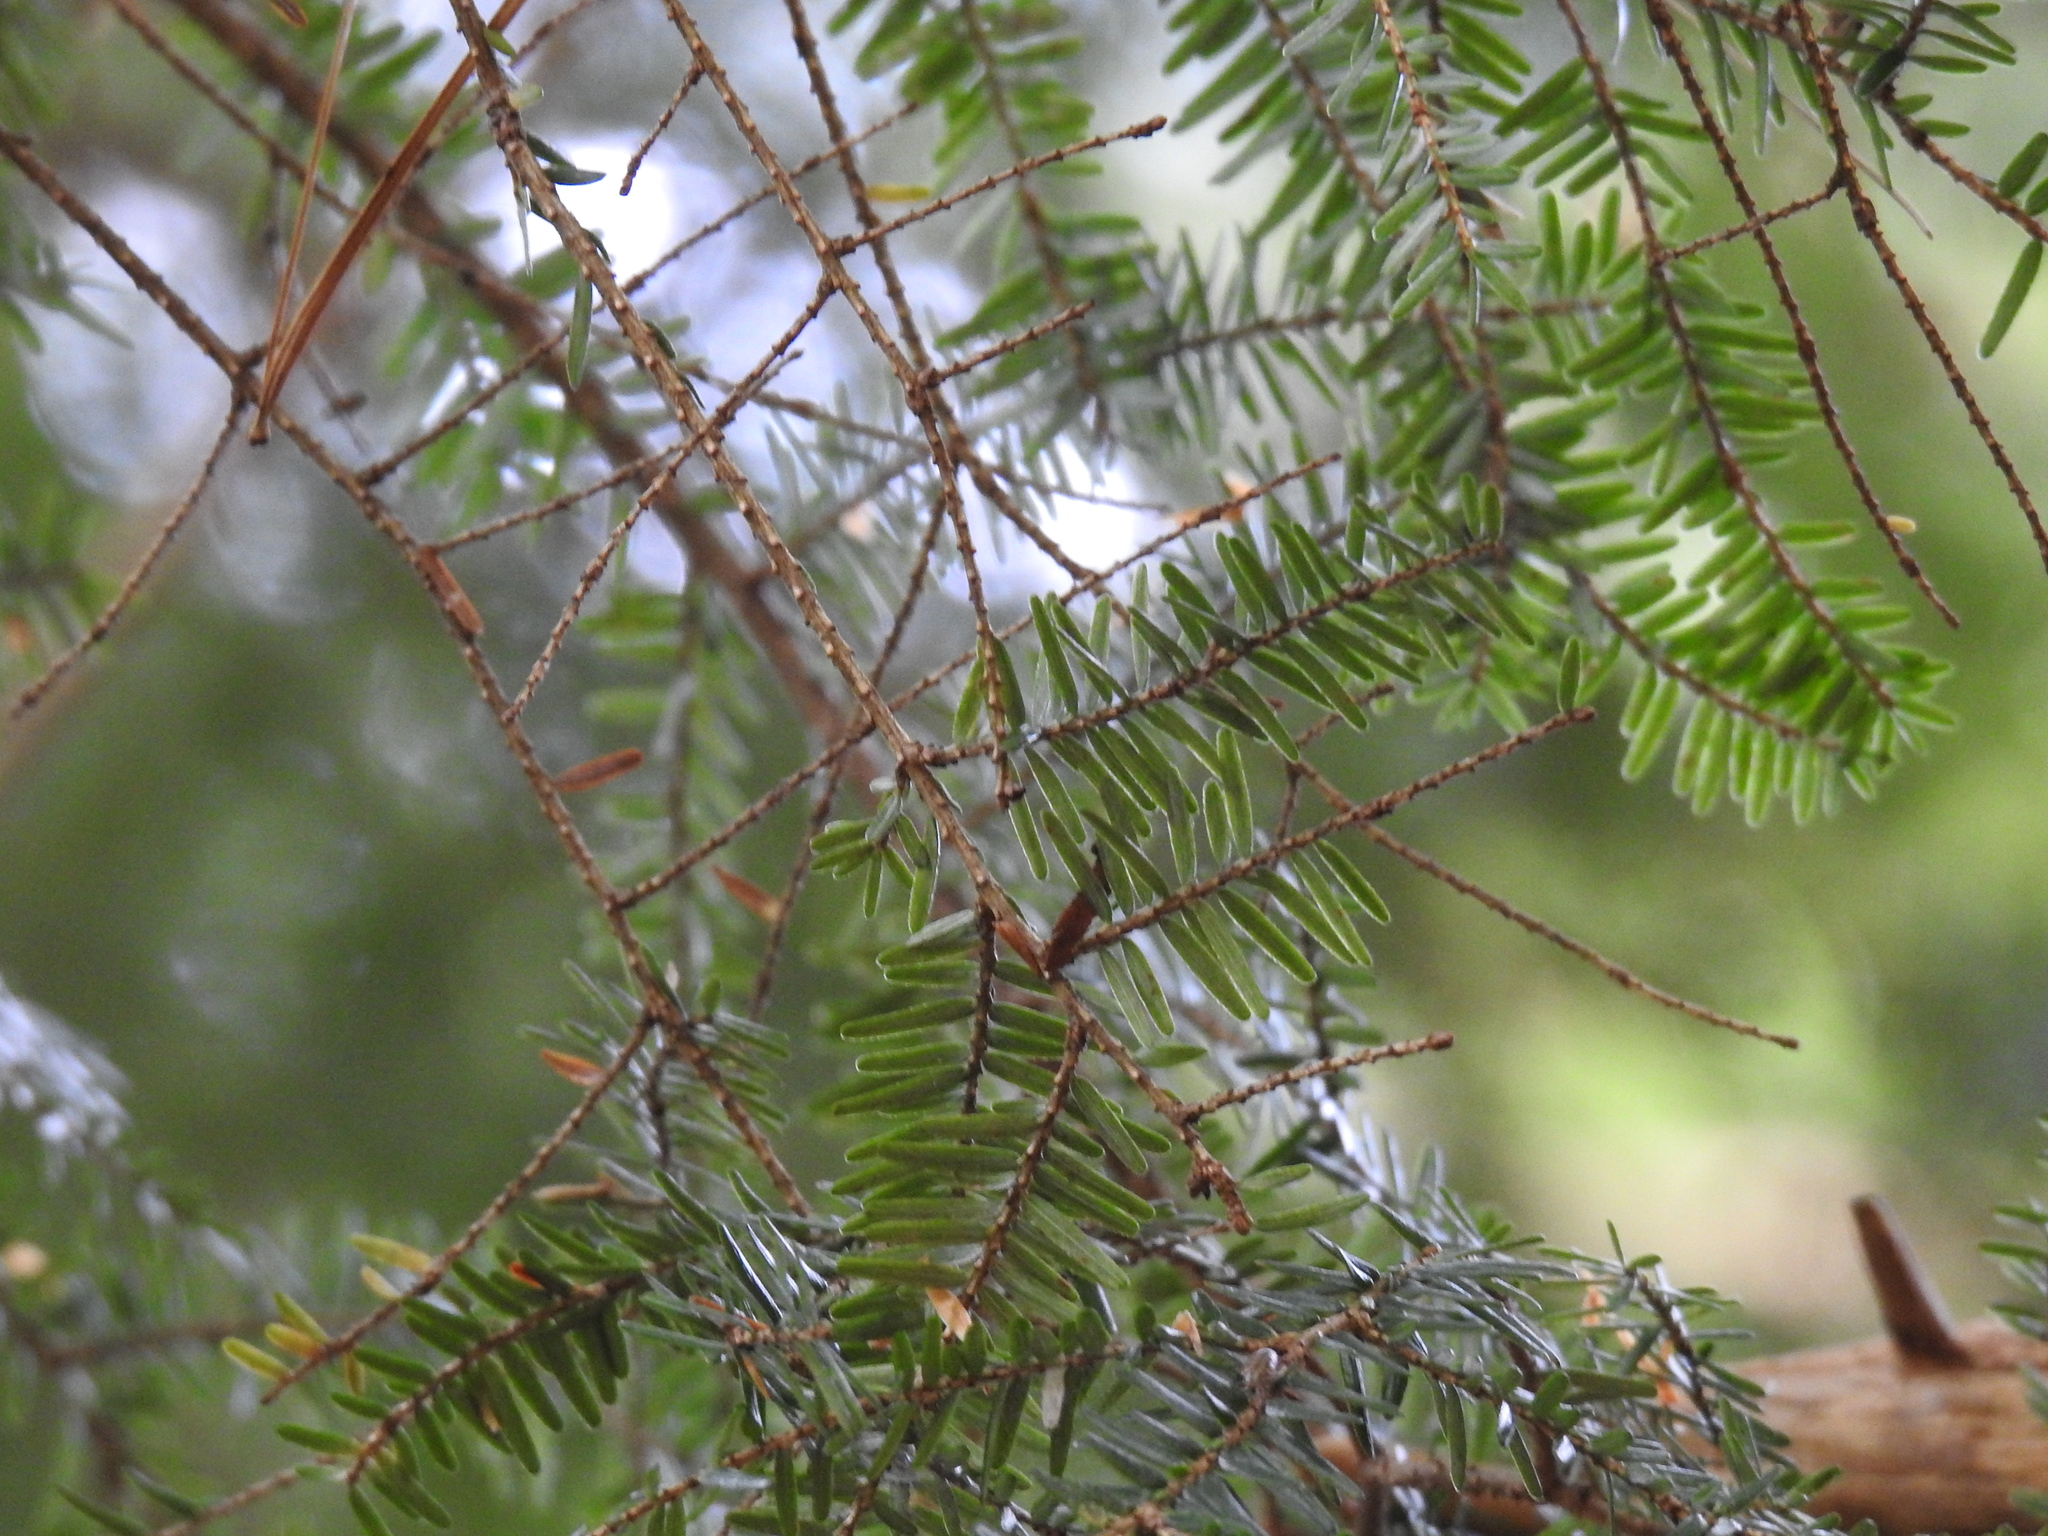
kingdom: Plantae
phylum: Tracheophyta
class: Pinopsida
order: Pinales
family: Pinaceae
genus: Tsuga
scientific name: Tsuga canadensis
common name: Eastern hemlock
